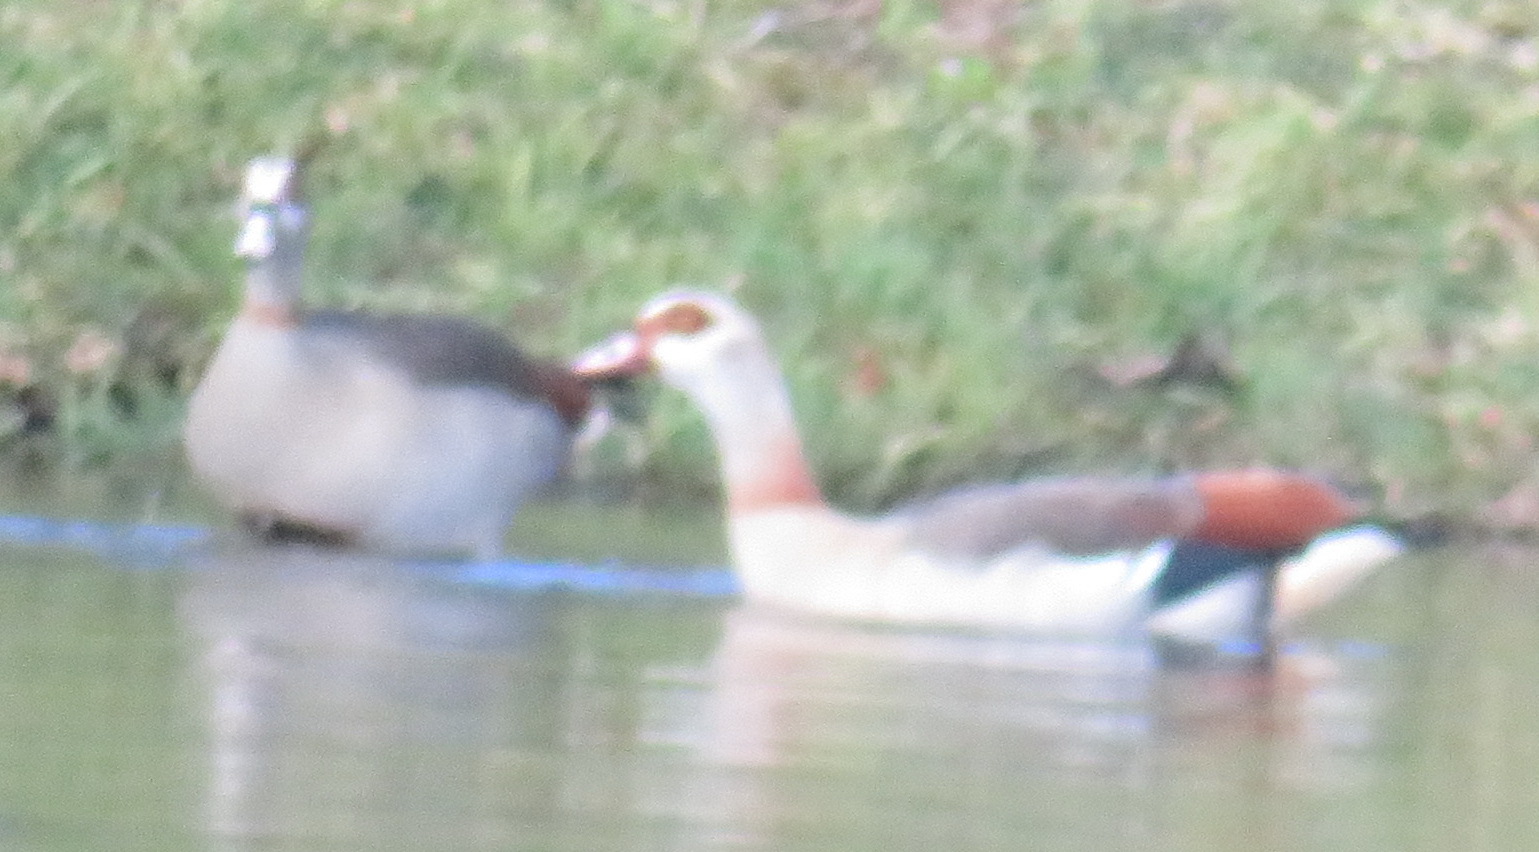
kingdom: Animalia
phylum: Chordata
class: Aves
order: Anseriformes
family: Anatidae
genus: Alopochen
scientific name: Alopochen aegyptiaca
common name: Egyptian goose
